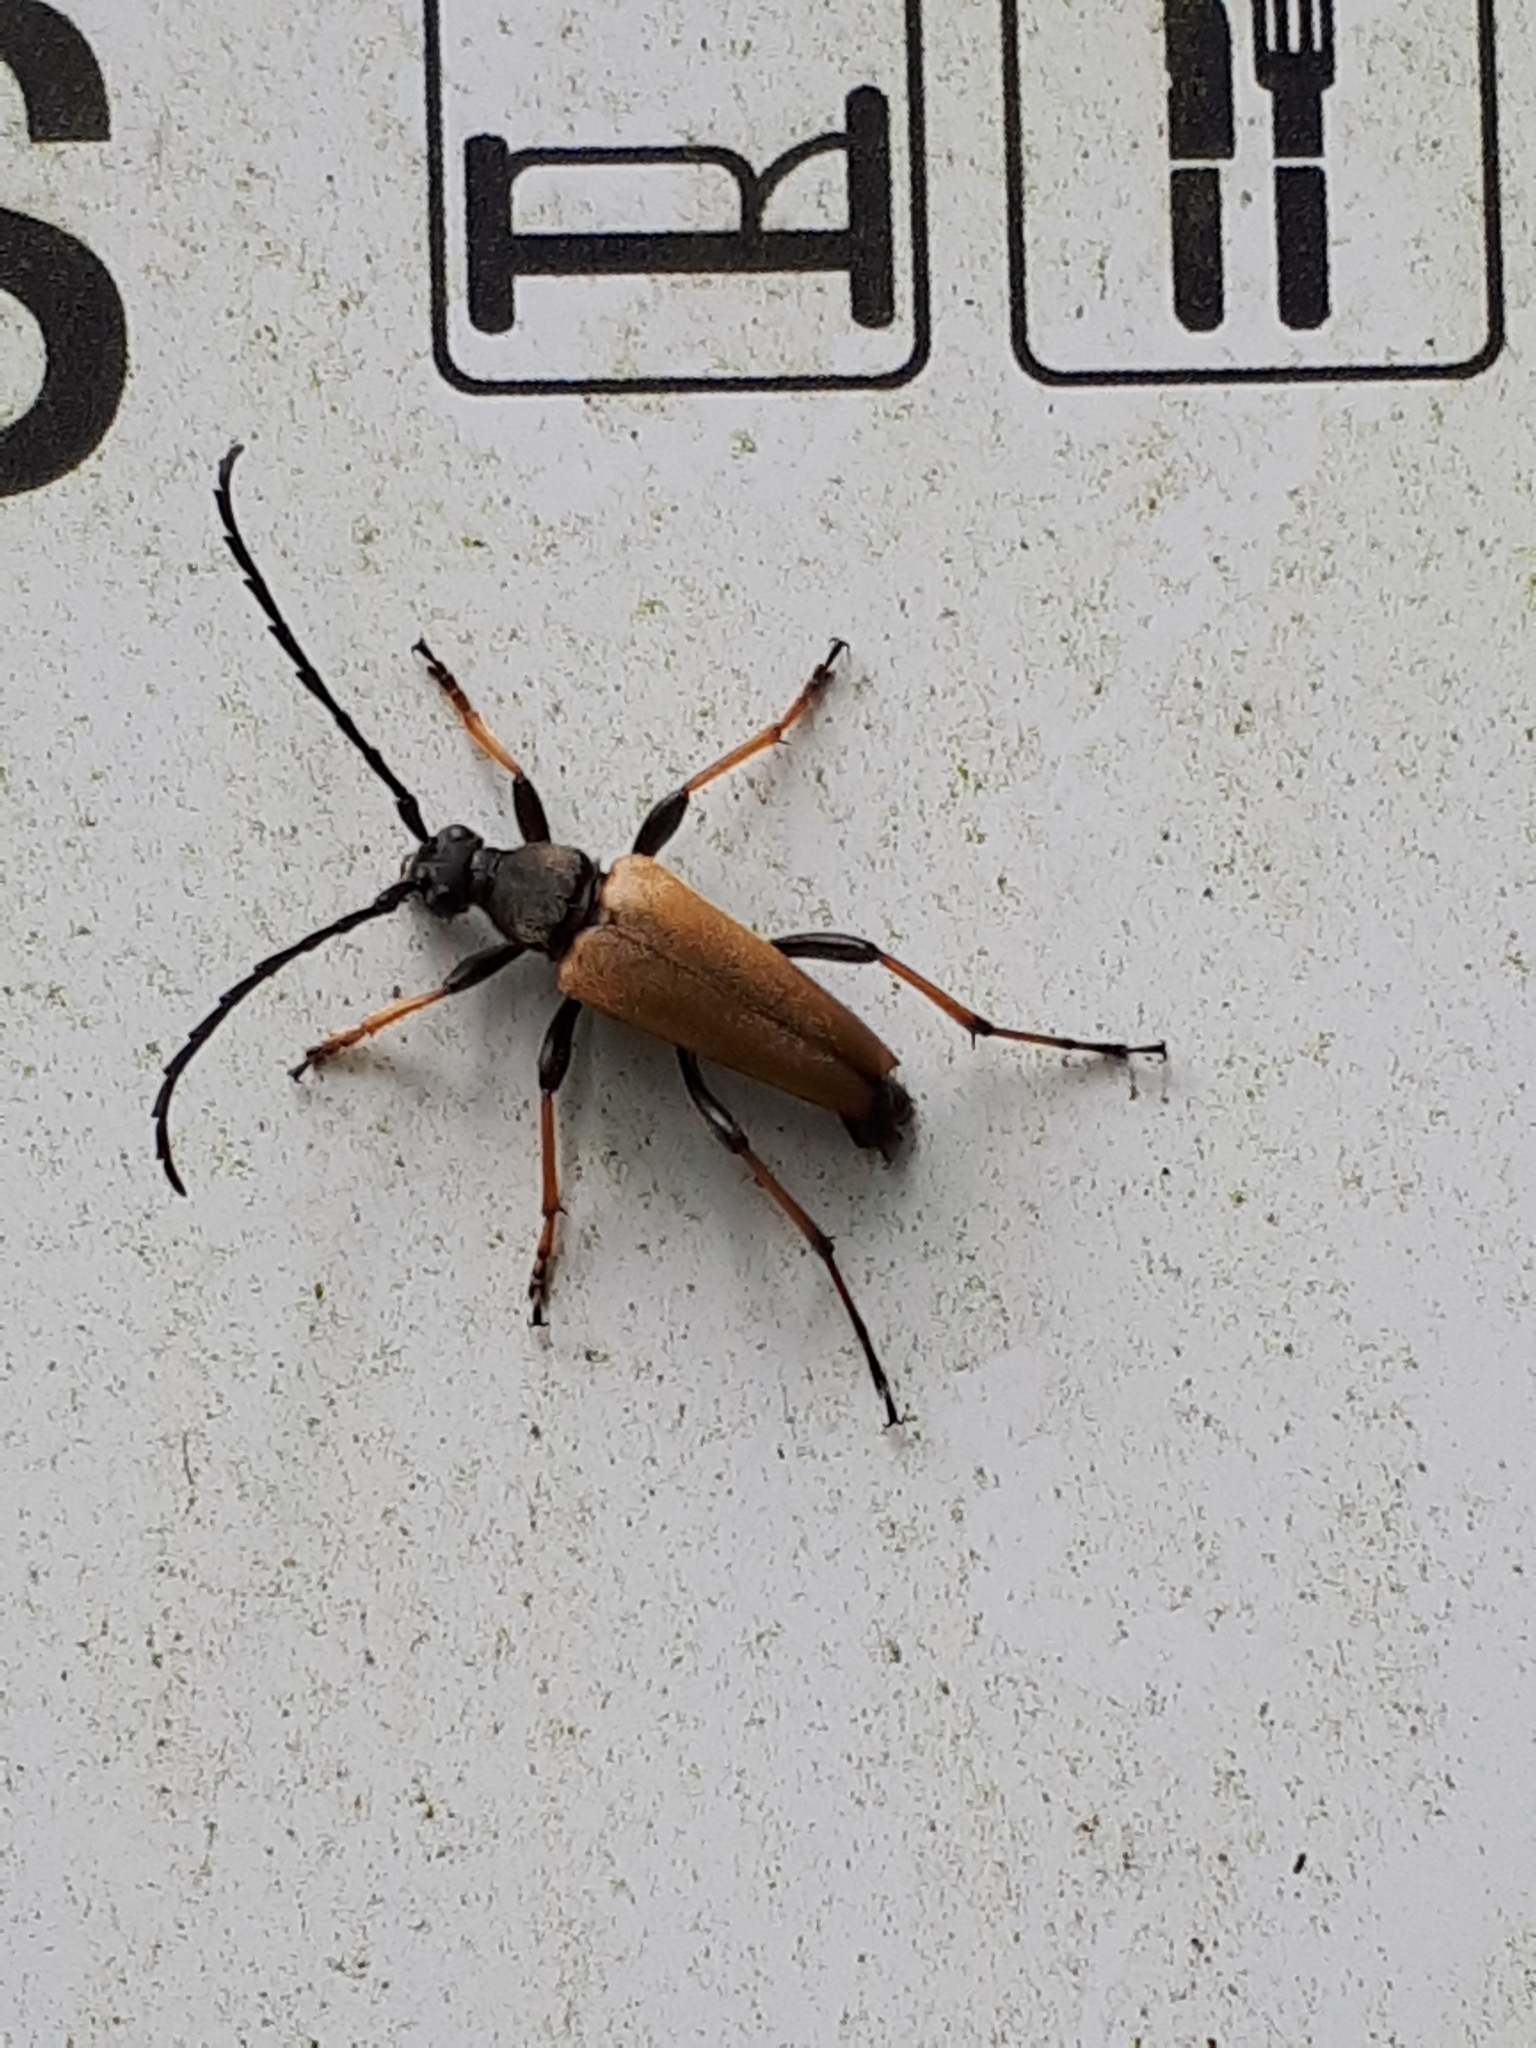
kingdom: Animalia
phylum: Arthropoda
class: Insecta
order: Coleoptera
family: Cerambycidae
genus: Stictoleptura
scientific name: Stictoleptura rubra
